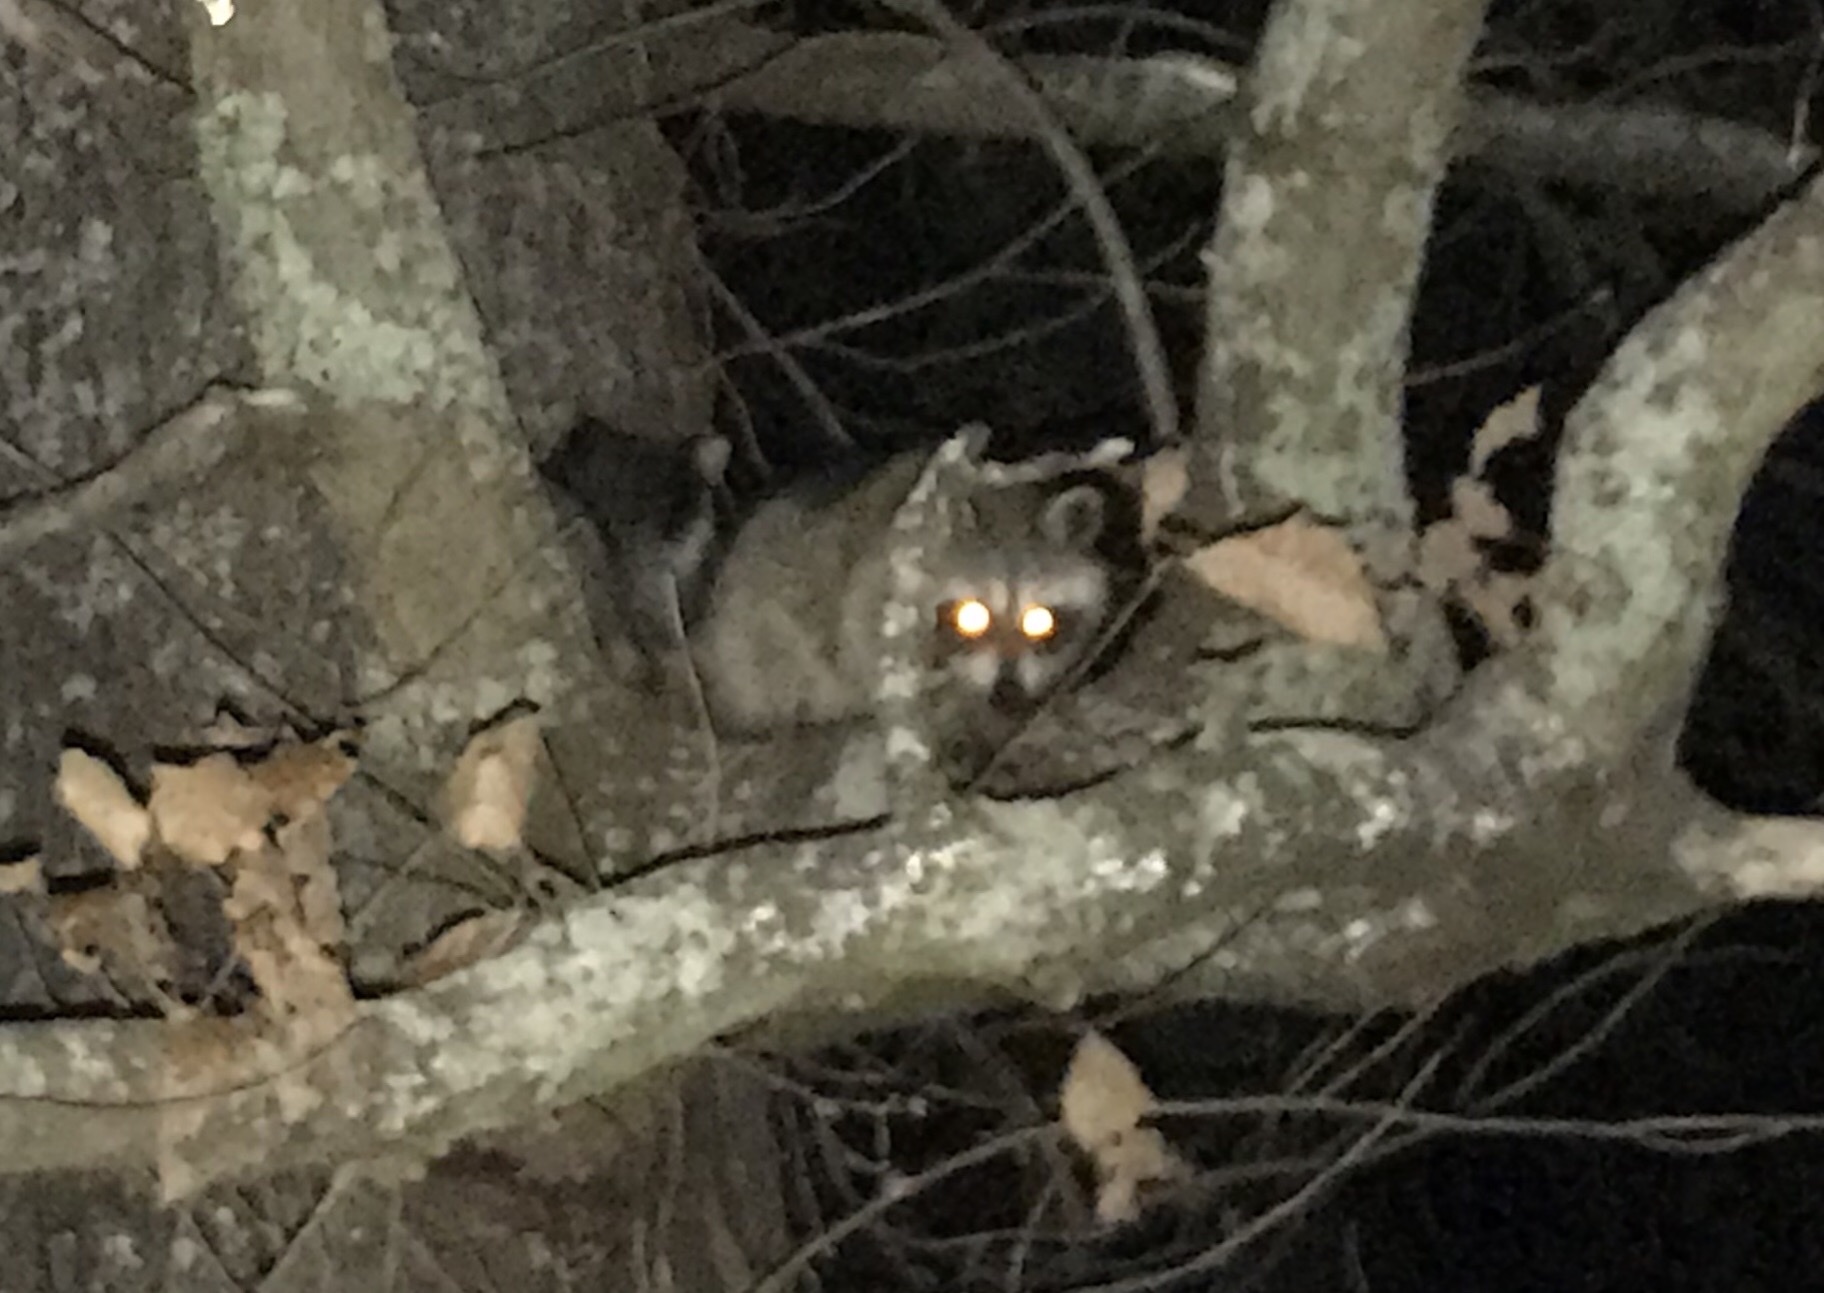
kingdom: Animalia
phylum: Chordata
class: Mammalia
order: Carnivora
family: Procyonidae
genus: Procyon
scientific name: Procyon lotor
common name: Raccoon
